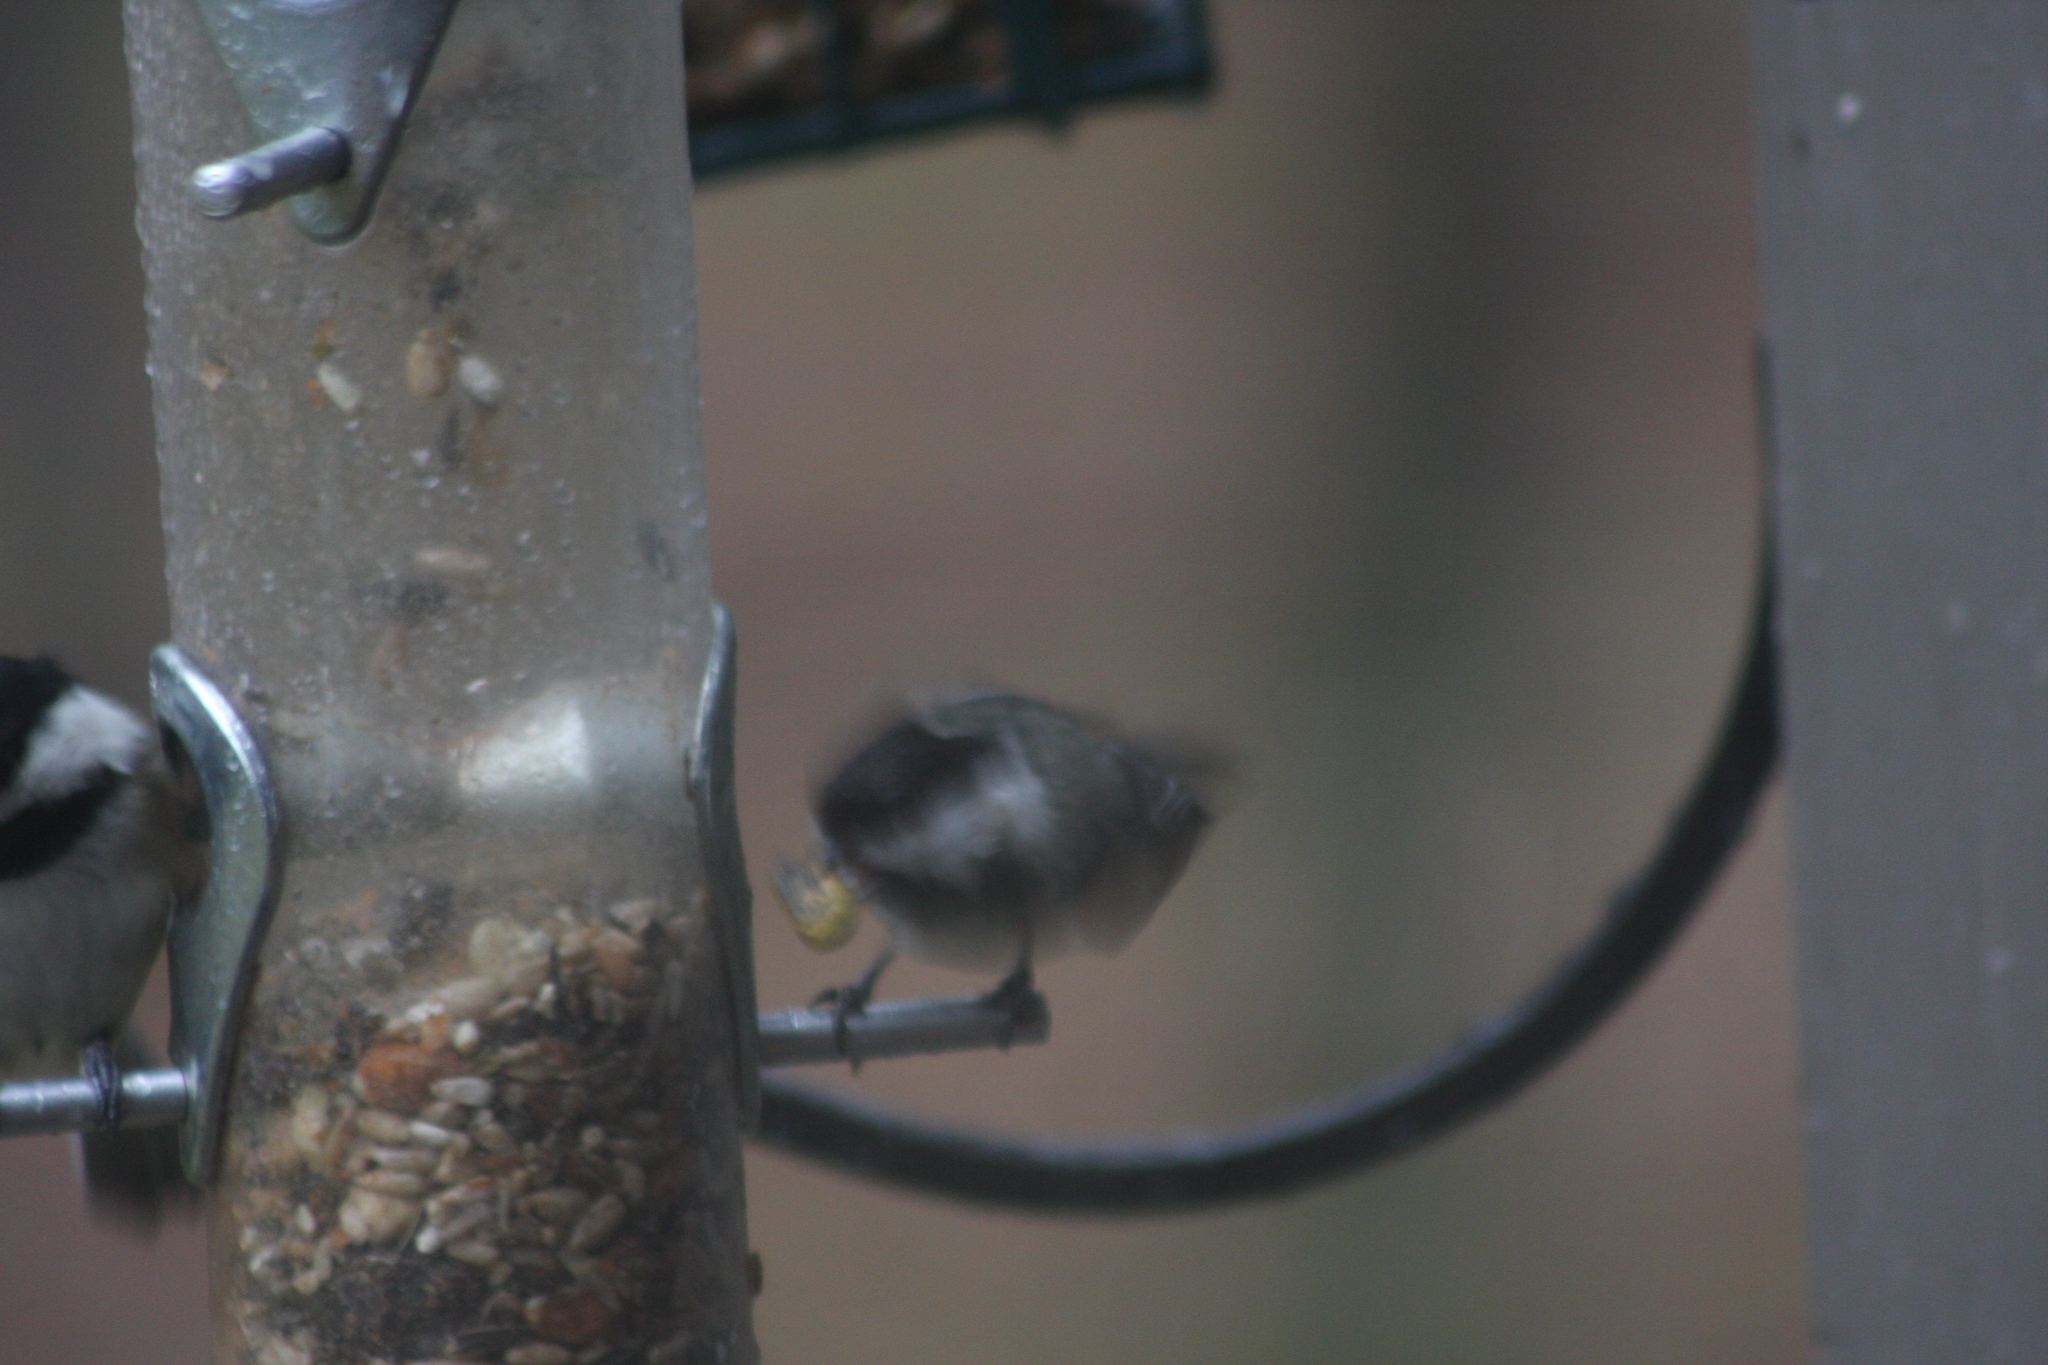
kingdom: Animalia
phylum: Chordata
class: Aves
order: Passeriformes
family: Paridae
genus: Poecile
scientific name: Poecile atricapillus
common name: Black-capped chickadee
